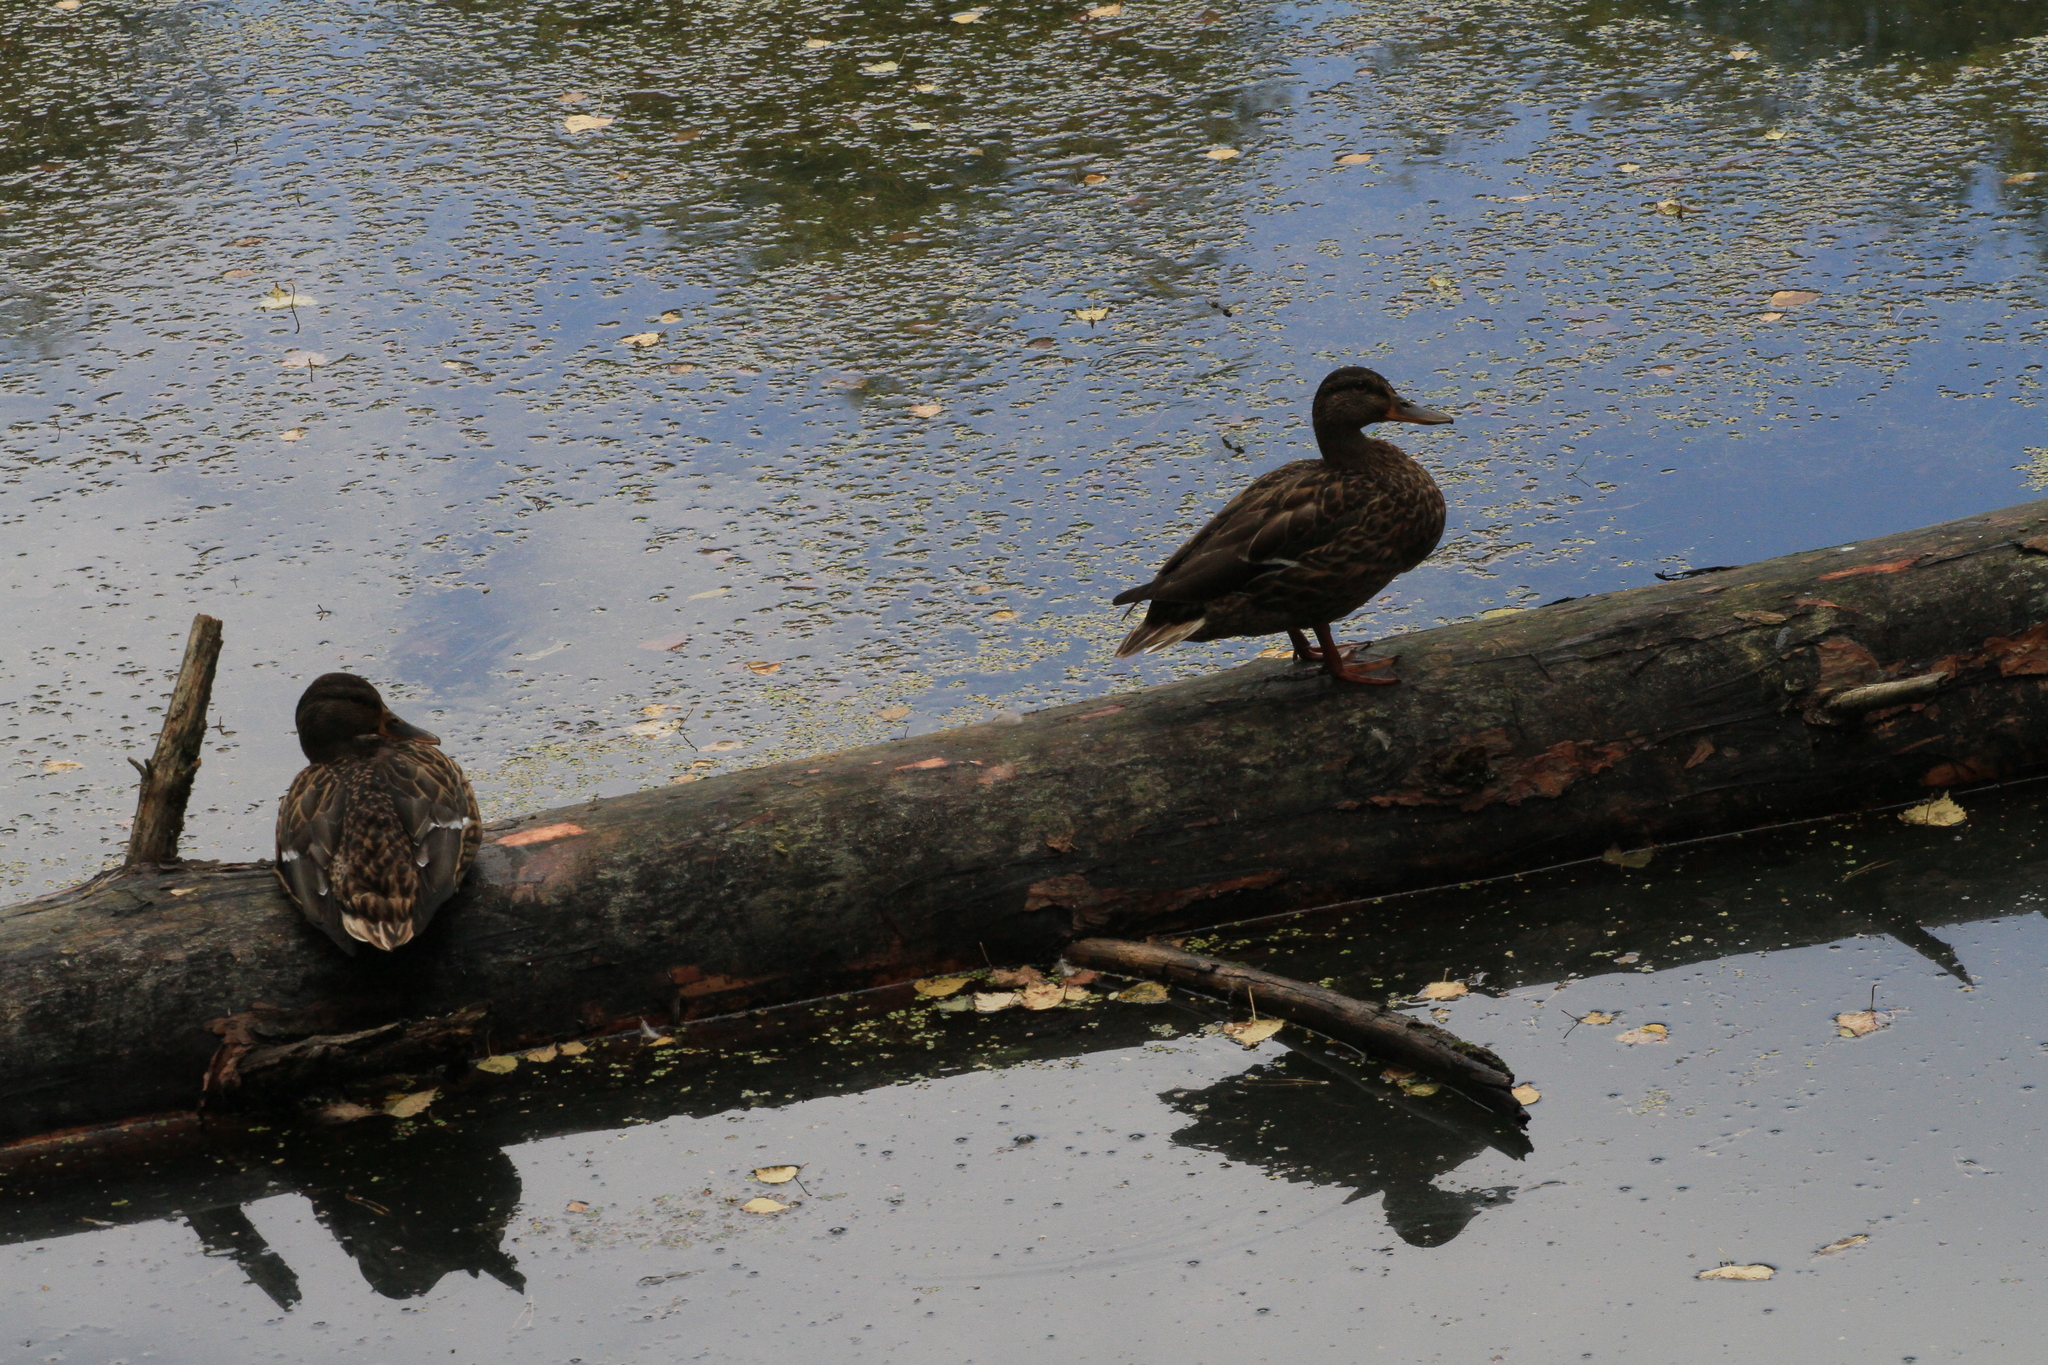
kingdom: Animalia
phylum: Chordata
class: Aves
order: Anseriformes
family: Anatidae
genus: Anas
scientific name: Anas platyrhynchos
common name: Mallard
